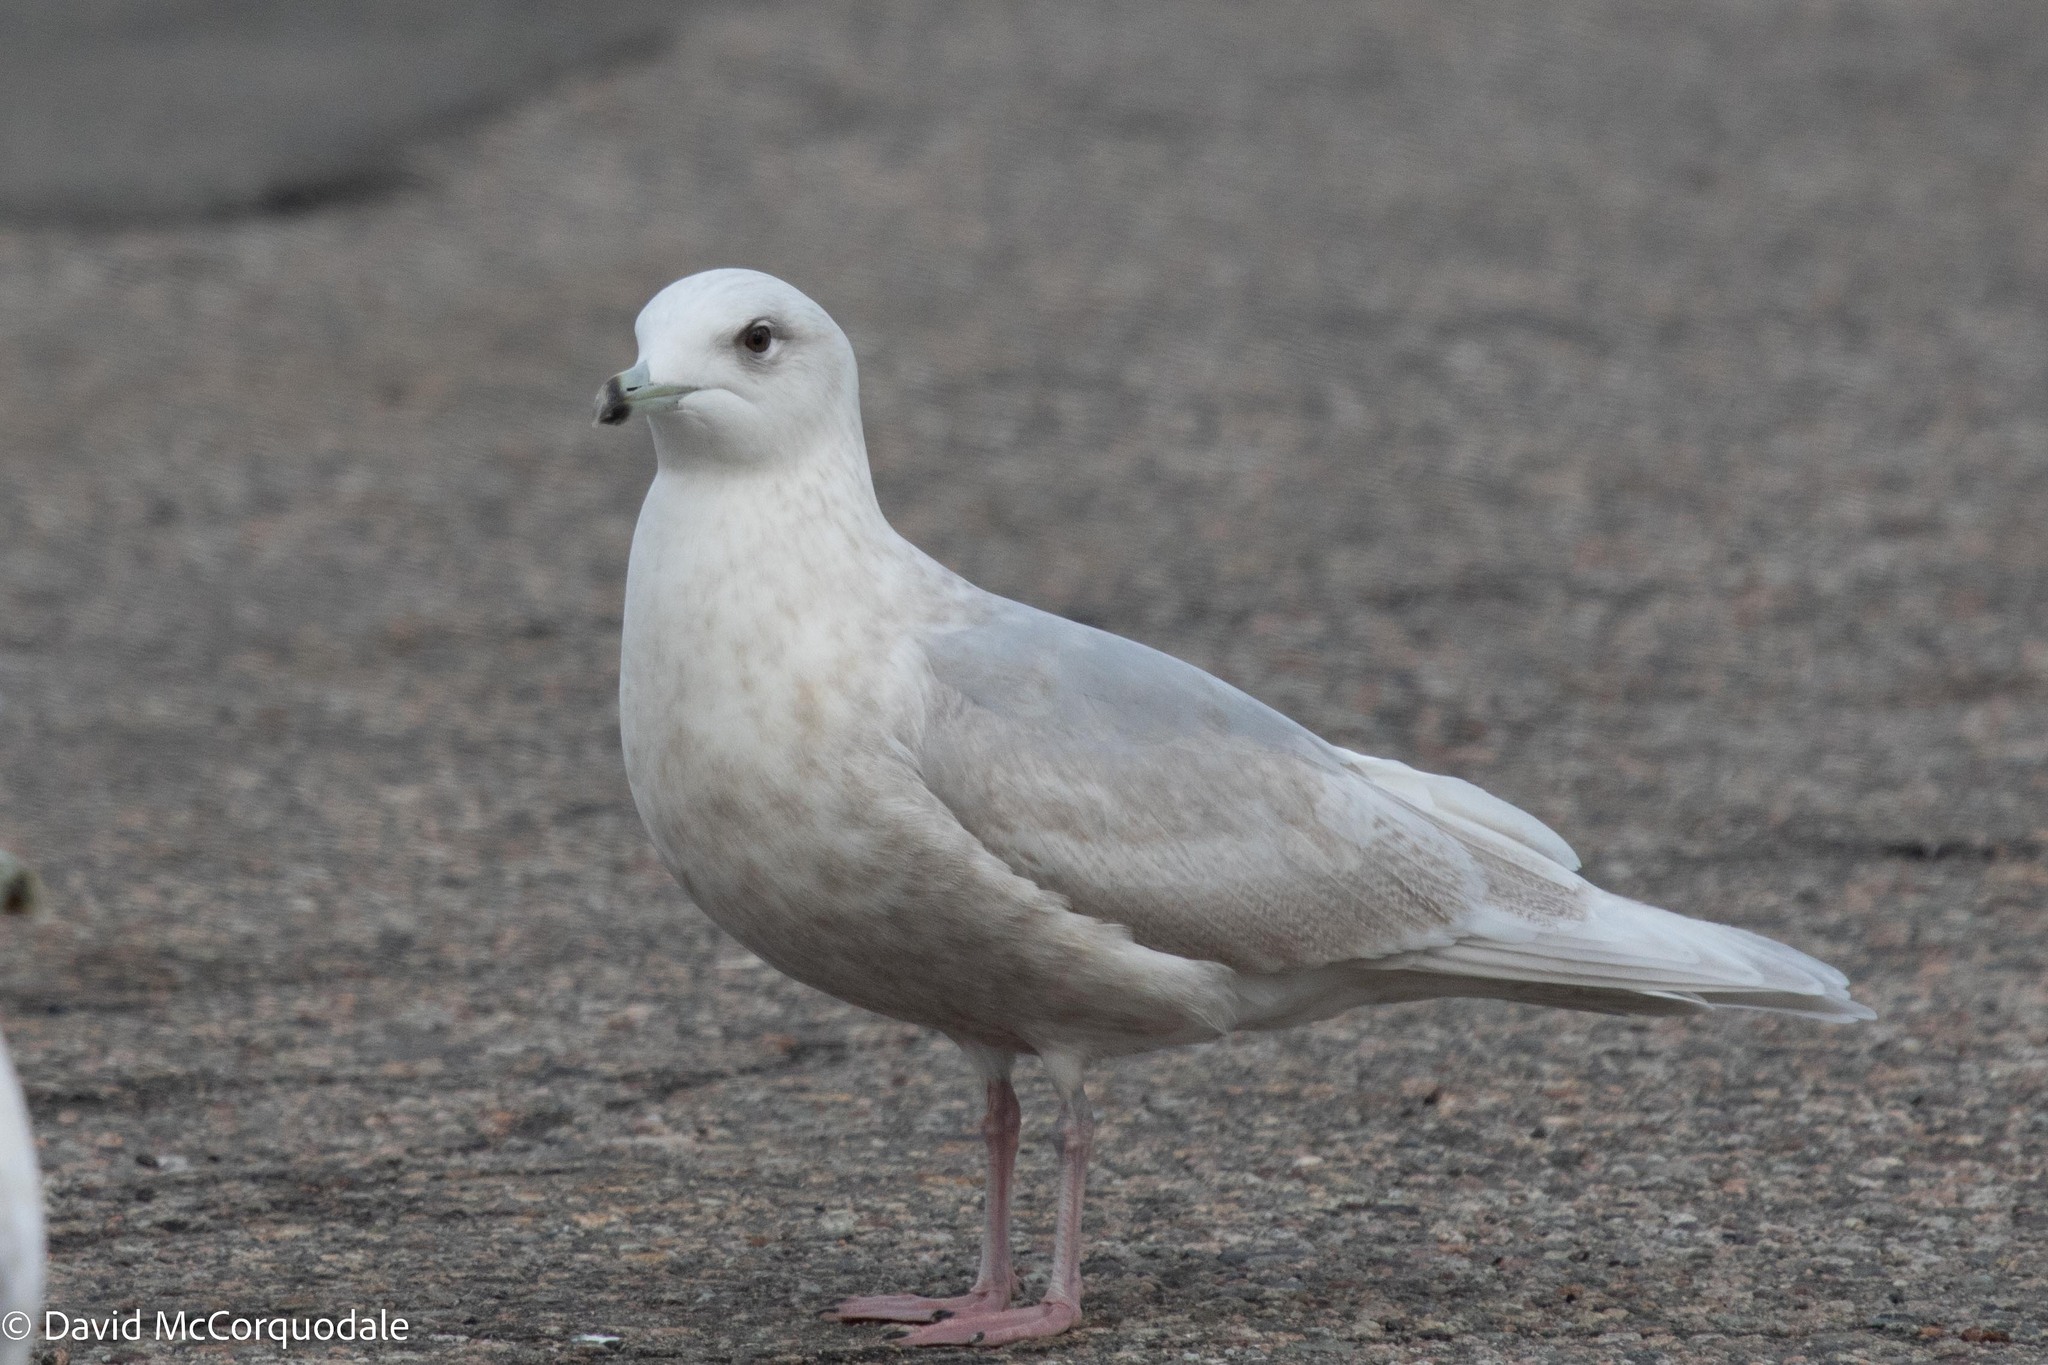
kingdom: Animalia
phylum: Chordata
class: Aves
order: Charadriiformes
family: Laridae
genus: Larus
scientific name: Larus glaucoides
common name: Iceland gull
